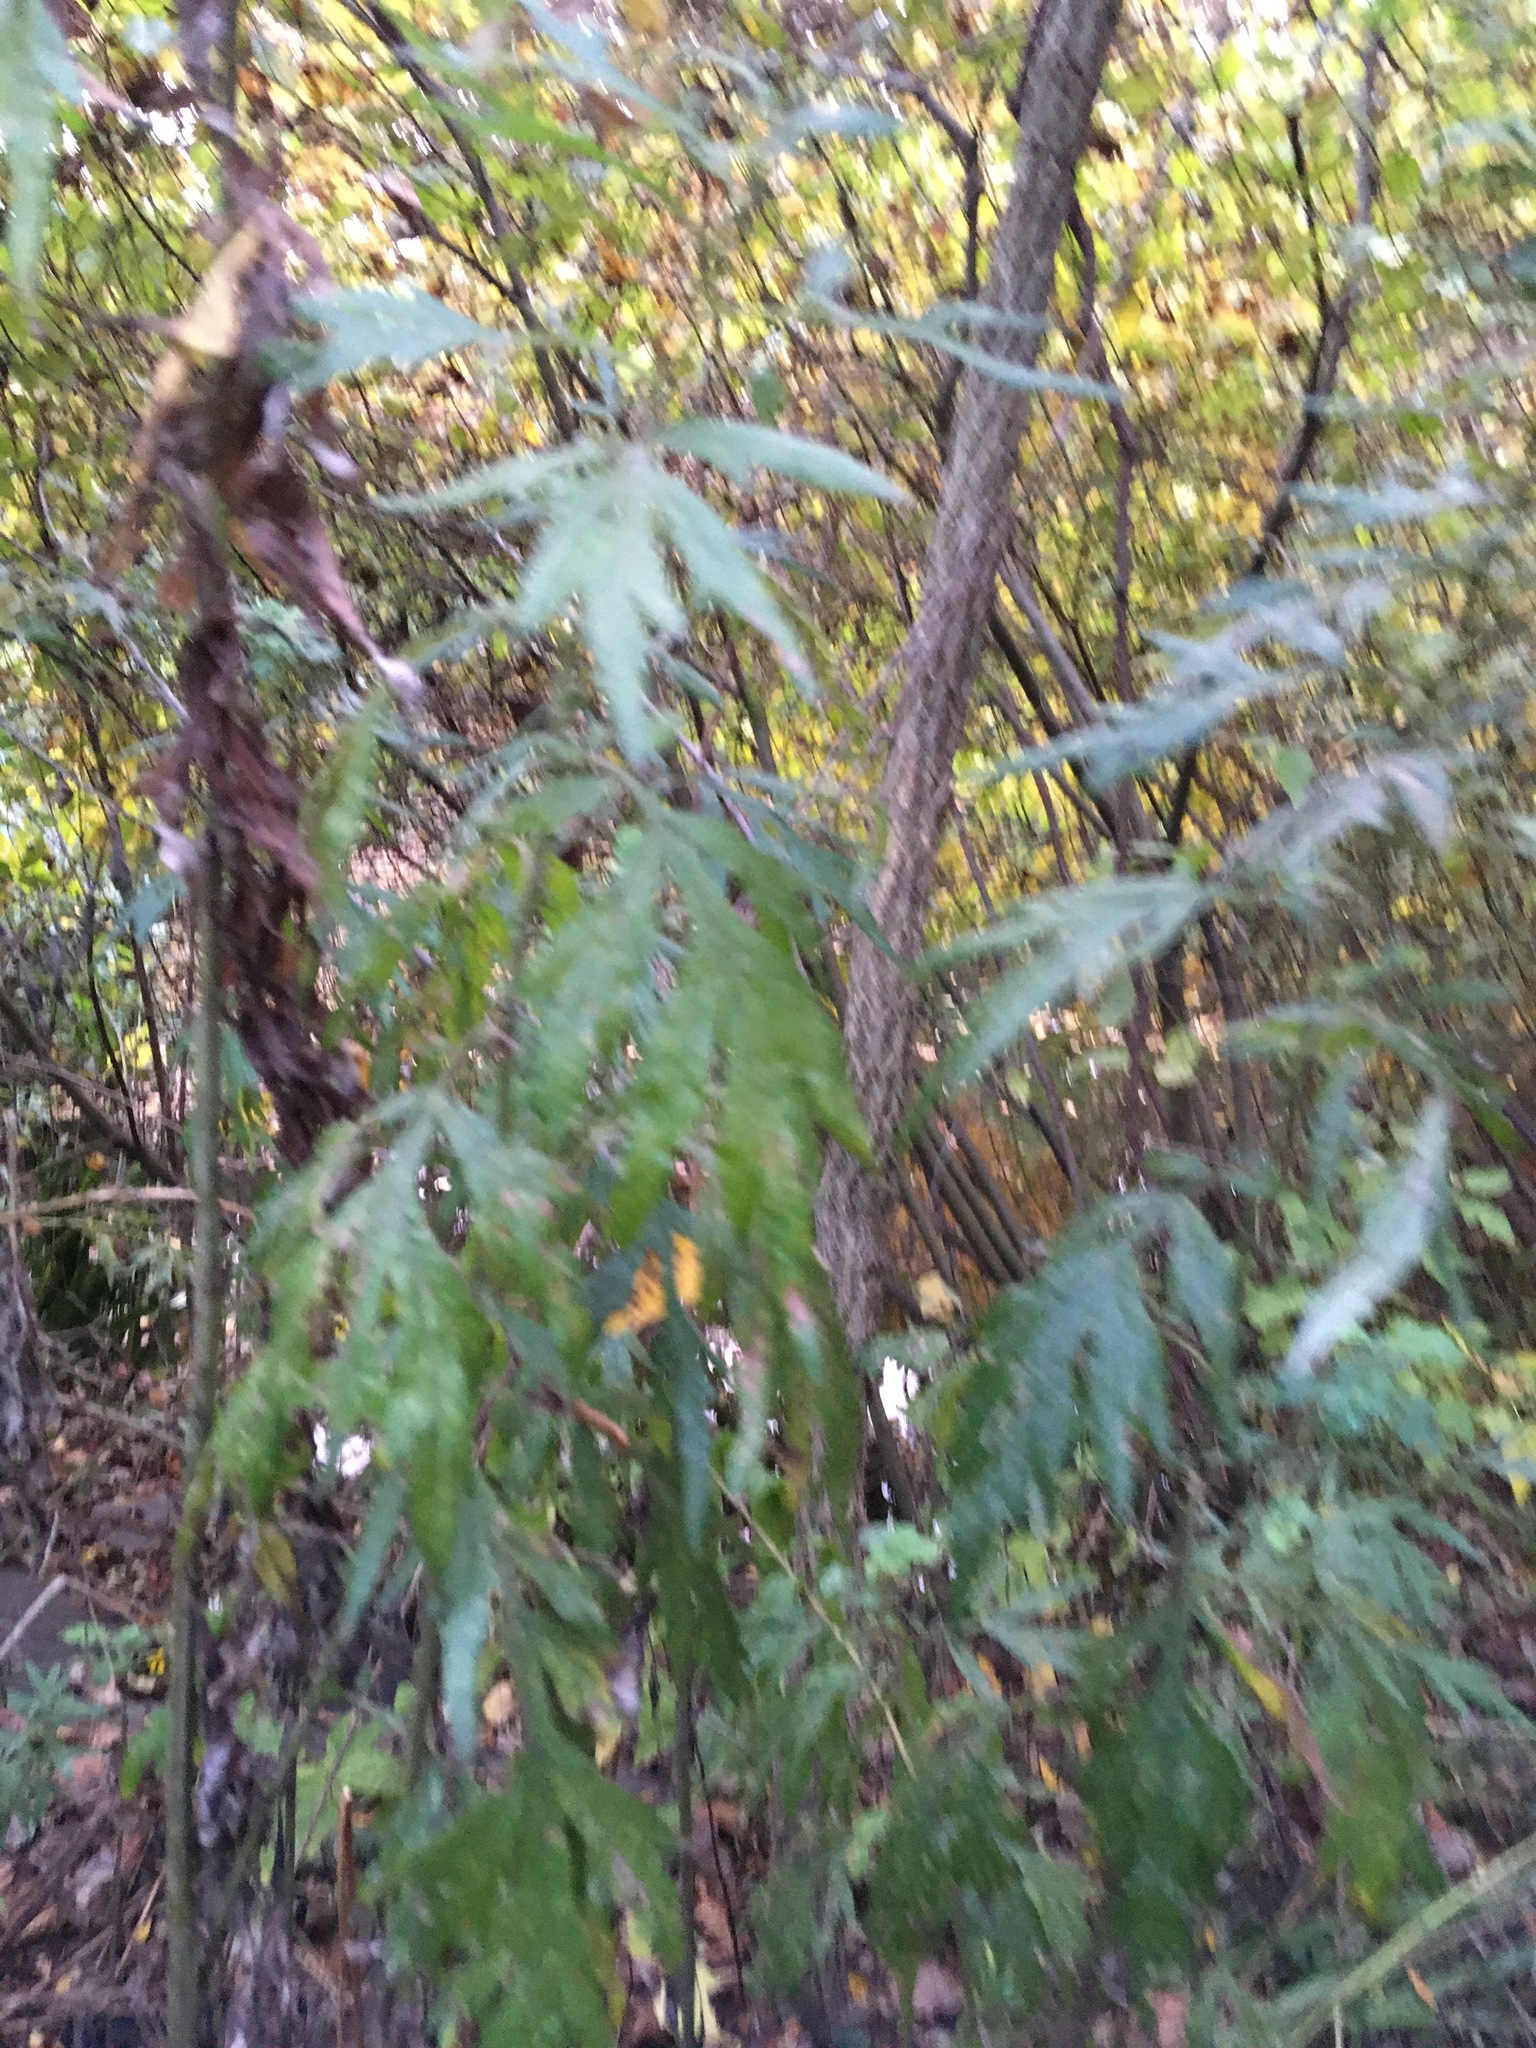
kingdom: Plantae
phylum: Tracheophyta
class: Magnoliopsida
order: Asterales
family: Asteraceae
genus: Artemisia
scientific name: Artemisia vulgaris
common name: Mugwort
